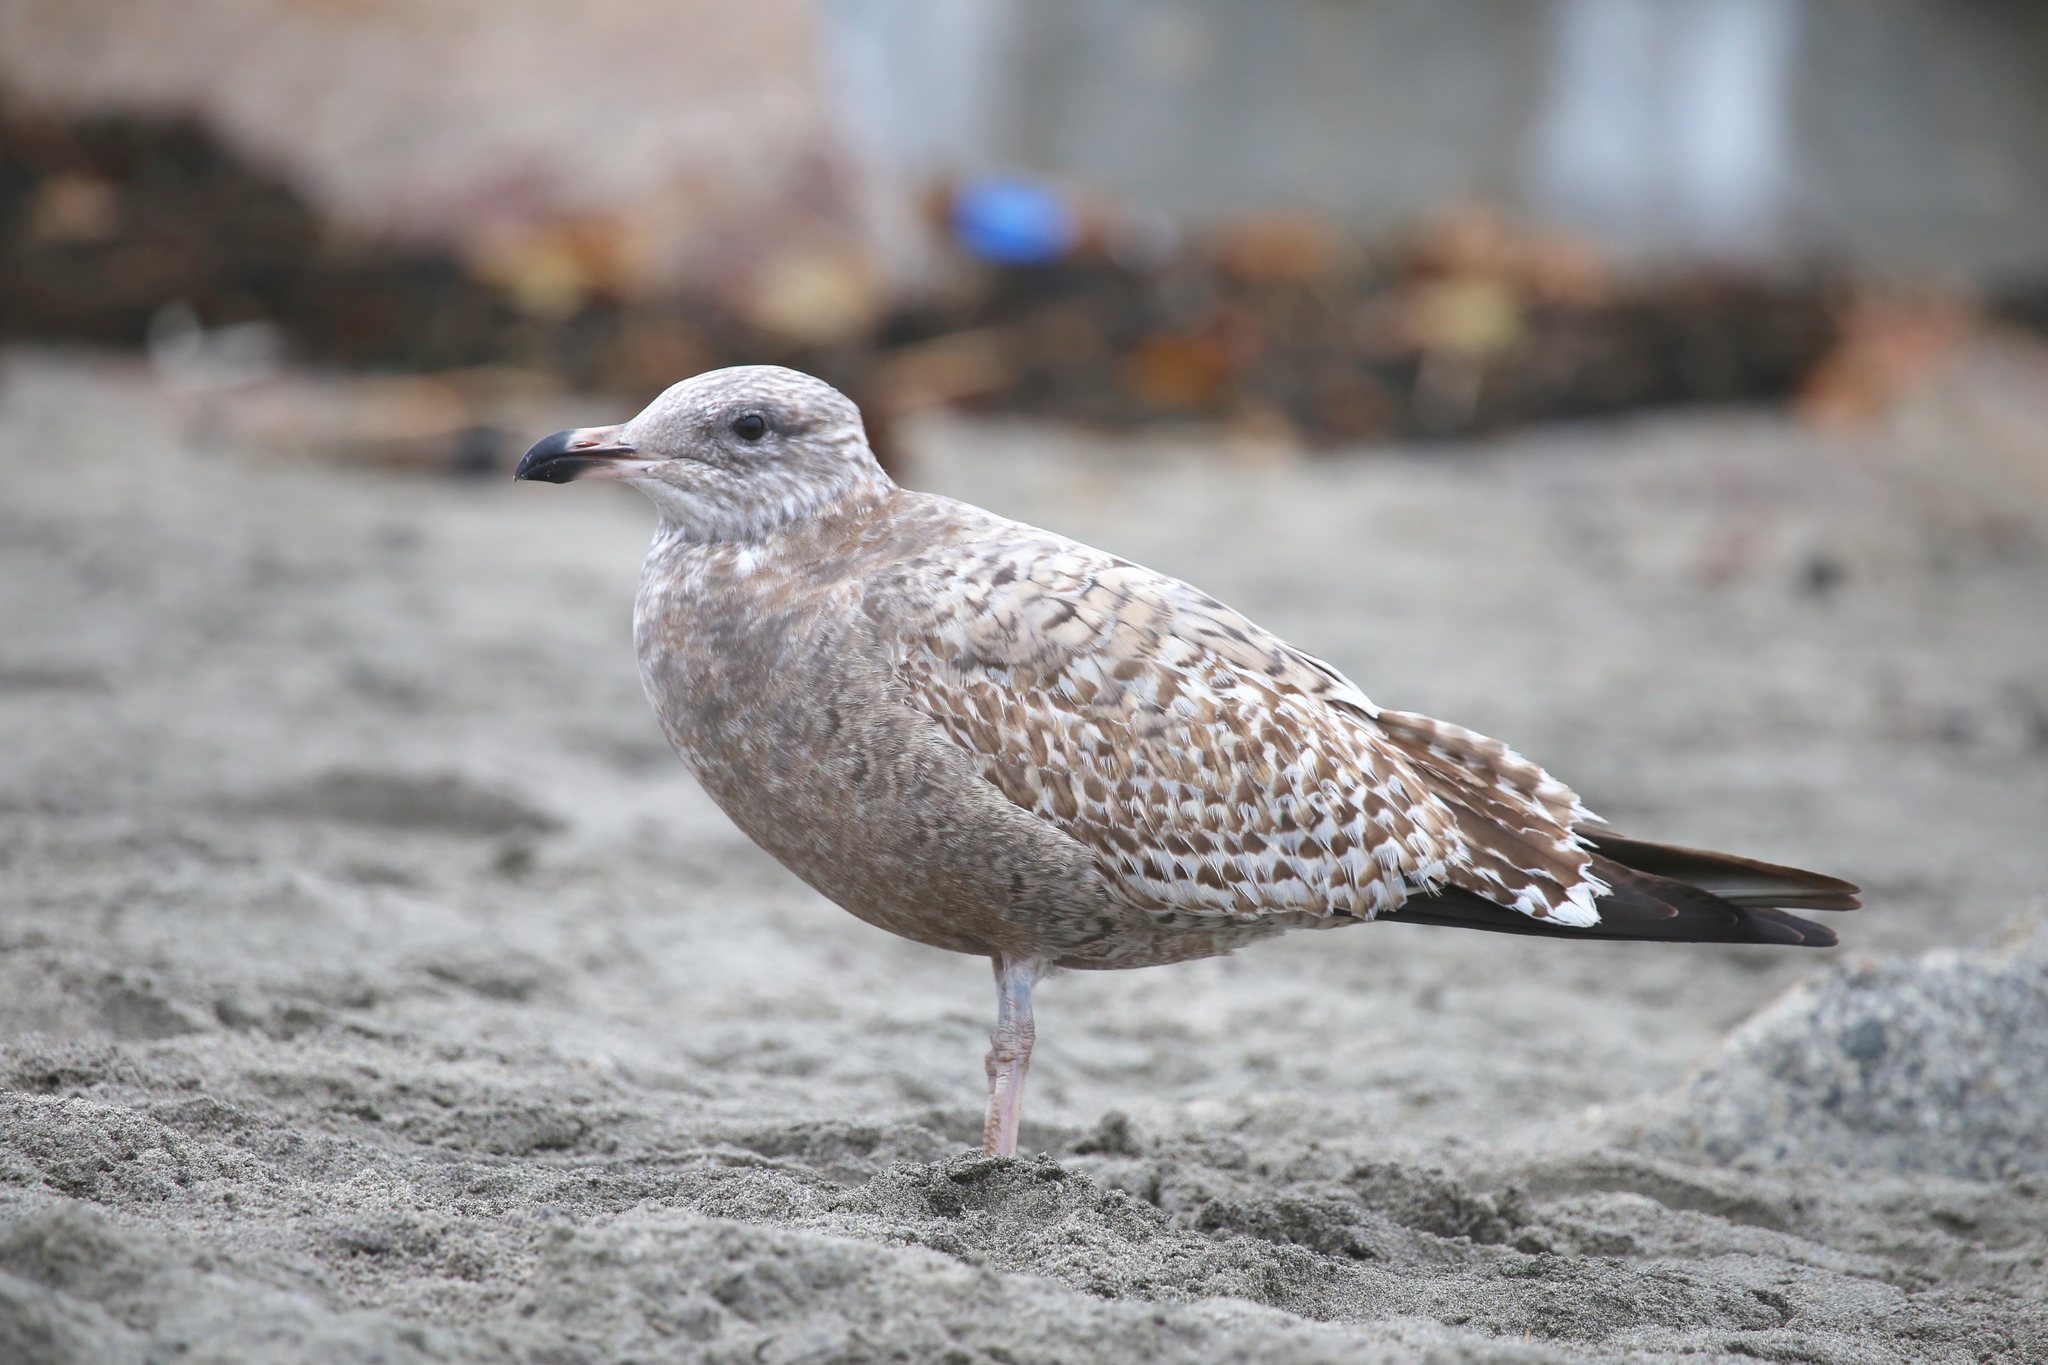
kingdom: Animalia
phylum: Chordata
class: Aves
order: Charadriiformes
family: Laridae
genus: Larus
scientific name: Larus argentatus
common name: Herring gull
